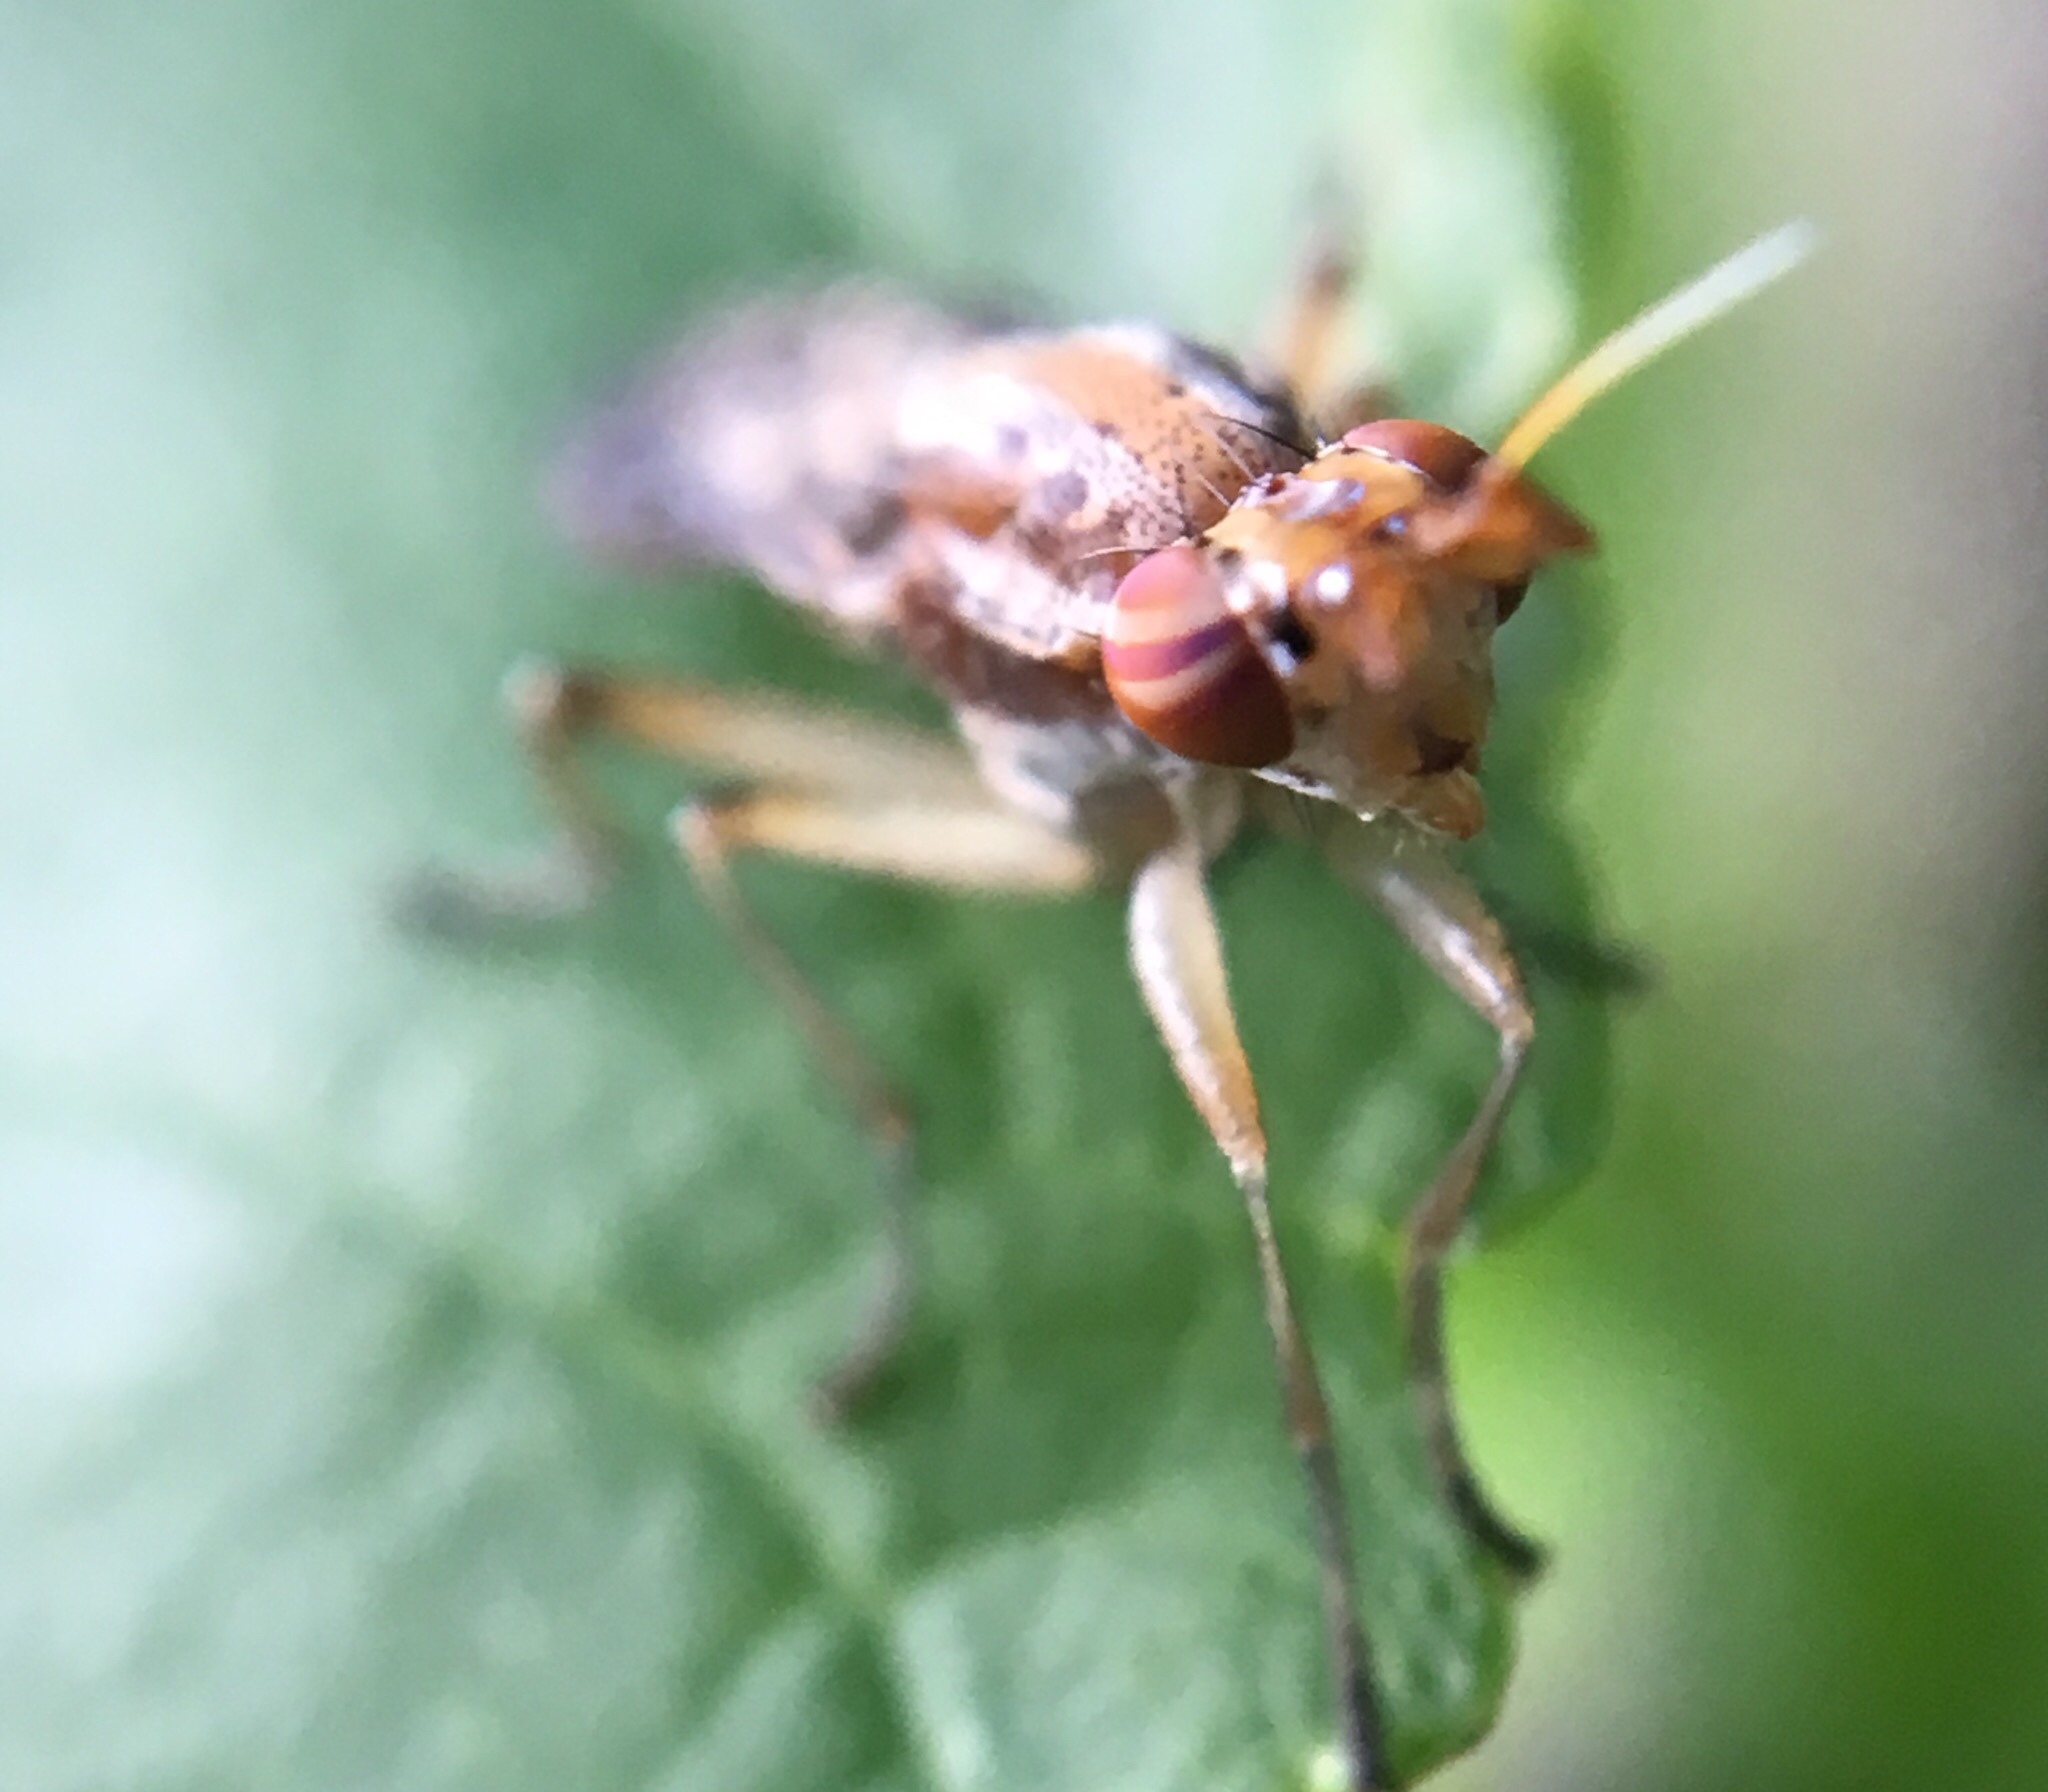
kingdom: Animalia
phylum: Arthropoda
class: Insecta
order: Diptera
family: Sciomyzidae
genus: Limnia
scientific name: Limnia shannoni
